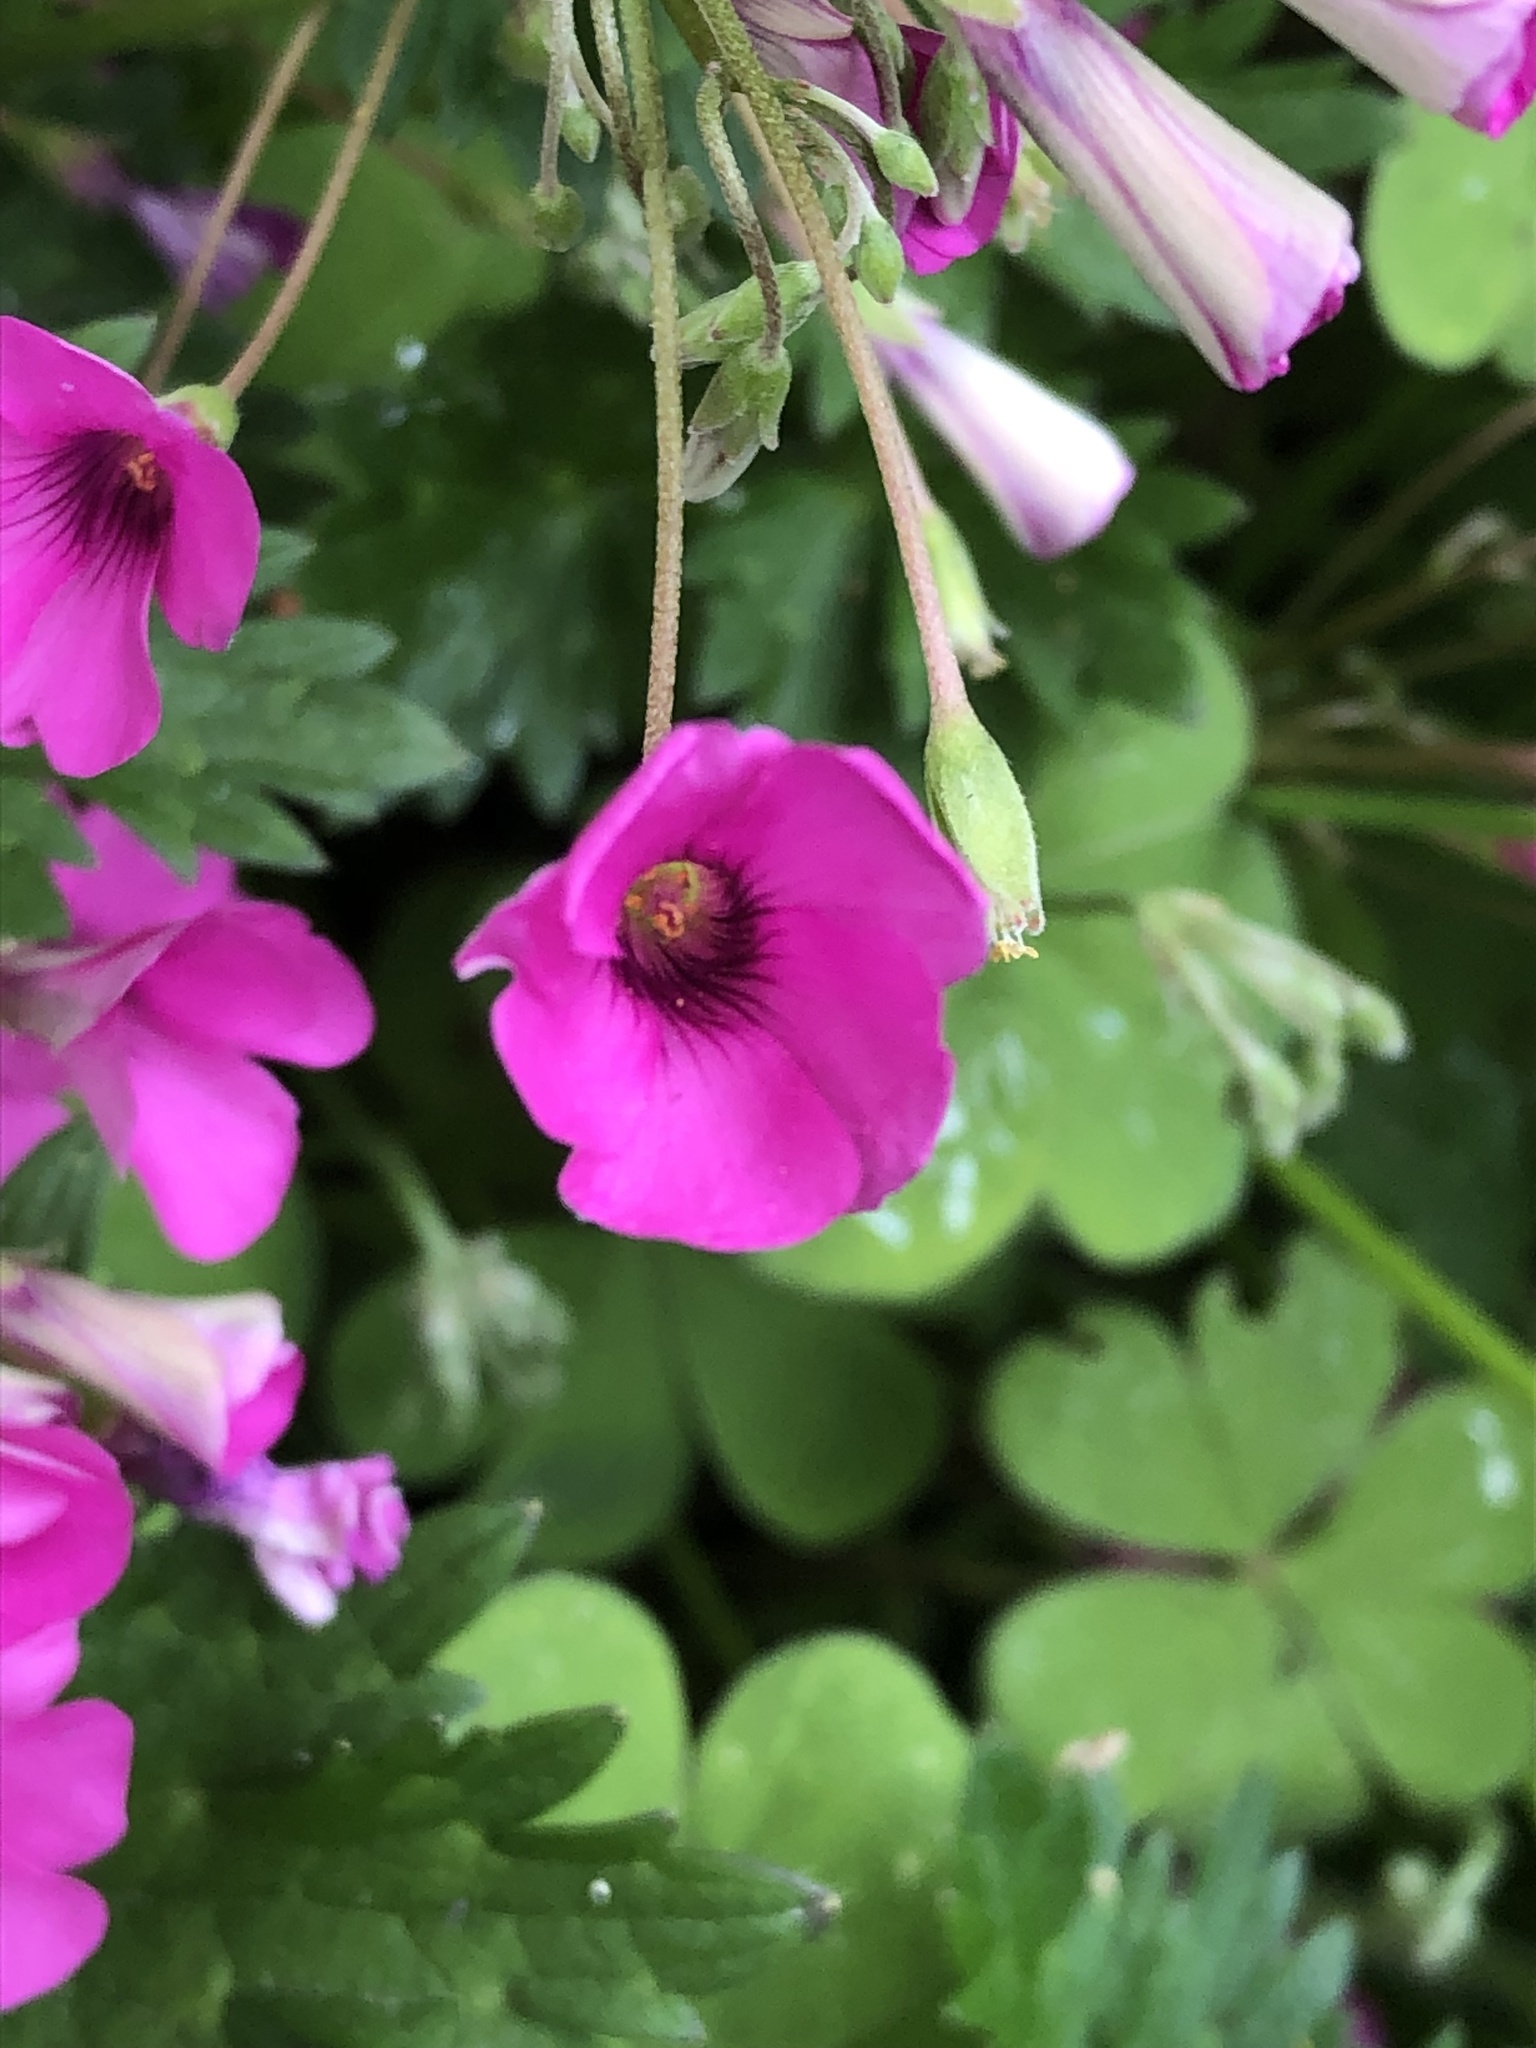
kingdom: Plantae
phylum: Tracheophyta
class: Magnoliopsida
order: Oxalidales
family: Oxalidaceae
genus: Oxalis
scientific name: Oxalis articulata
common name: Pink-sorrel
